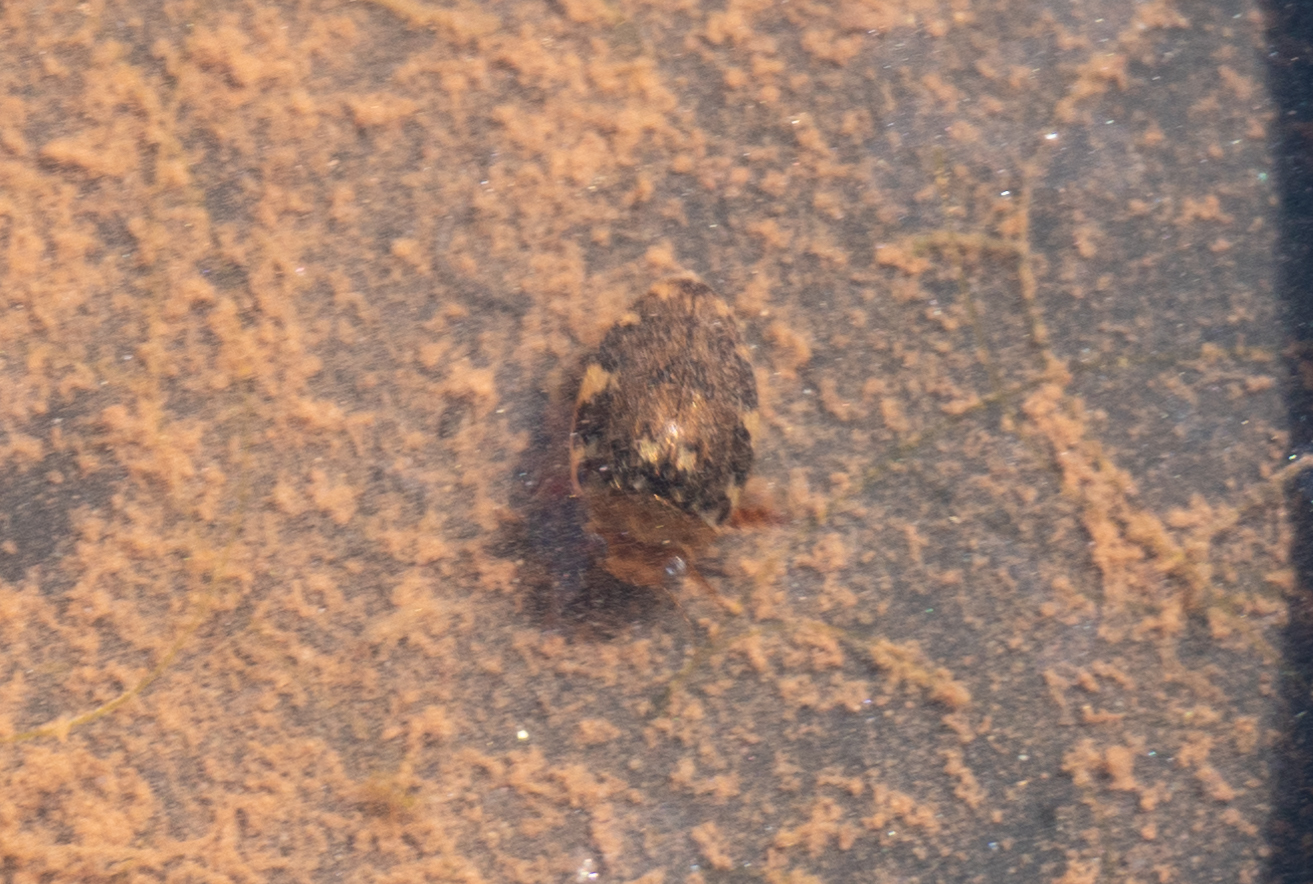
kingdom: Animalia
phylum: Arthropoda
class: Insecta
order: Coleoptera
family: Dytiscidae
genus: Laccophilus
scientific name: Laccophilus maculosus
